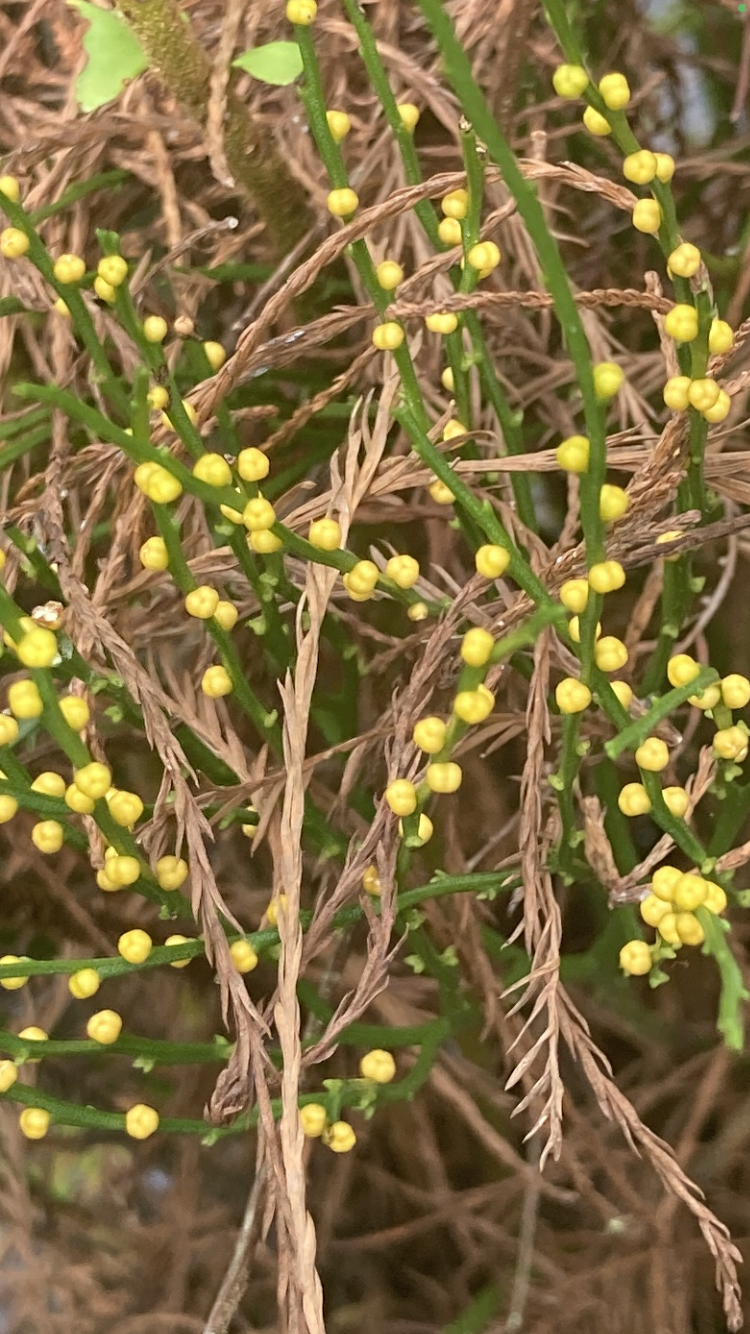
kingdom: Plantae
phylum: Tracheophyta
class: Polypodiopsida
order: Psilotales
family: Psilotaceae
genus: Psilotum
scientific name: Psilotum nudum
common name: Skeleton fork fern
